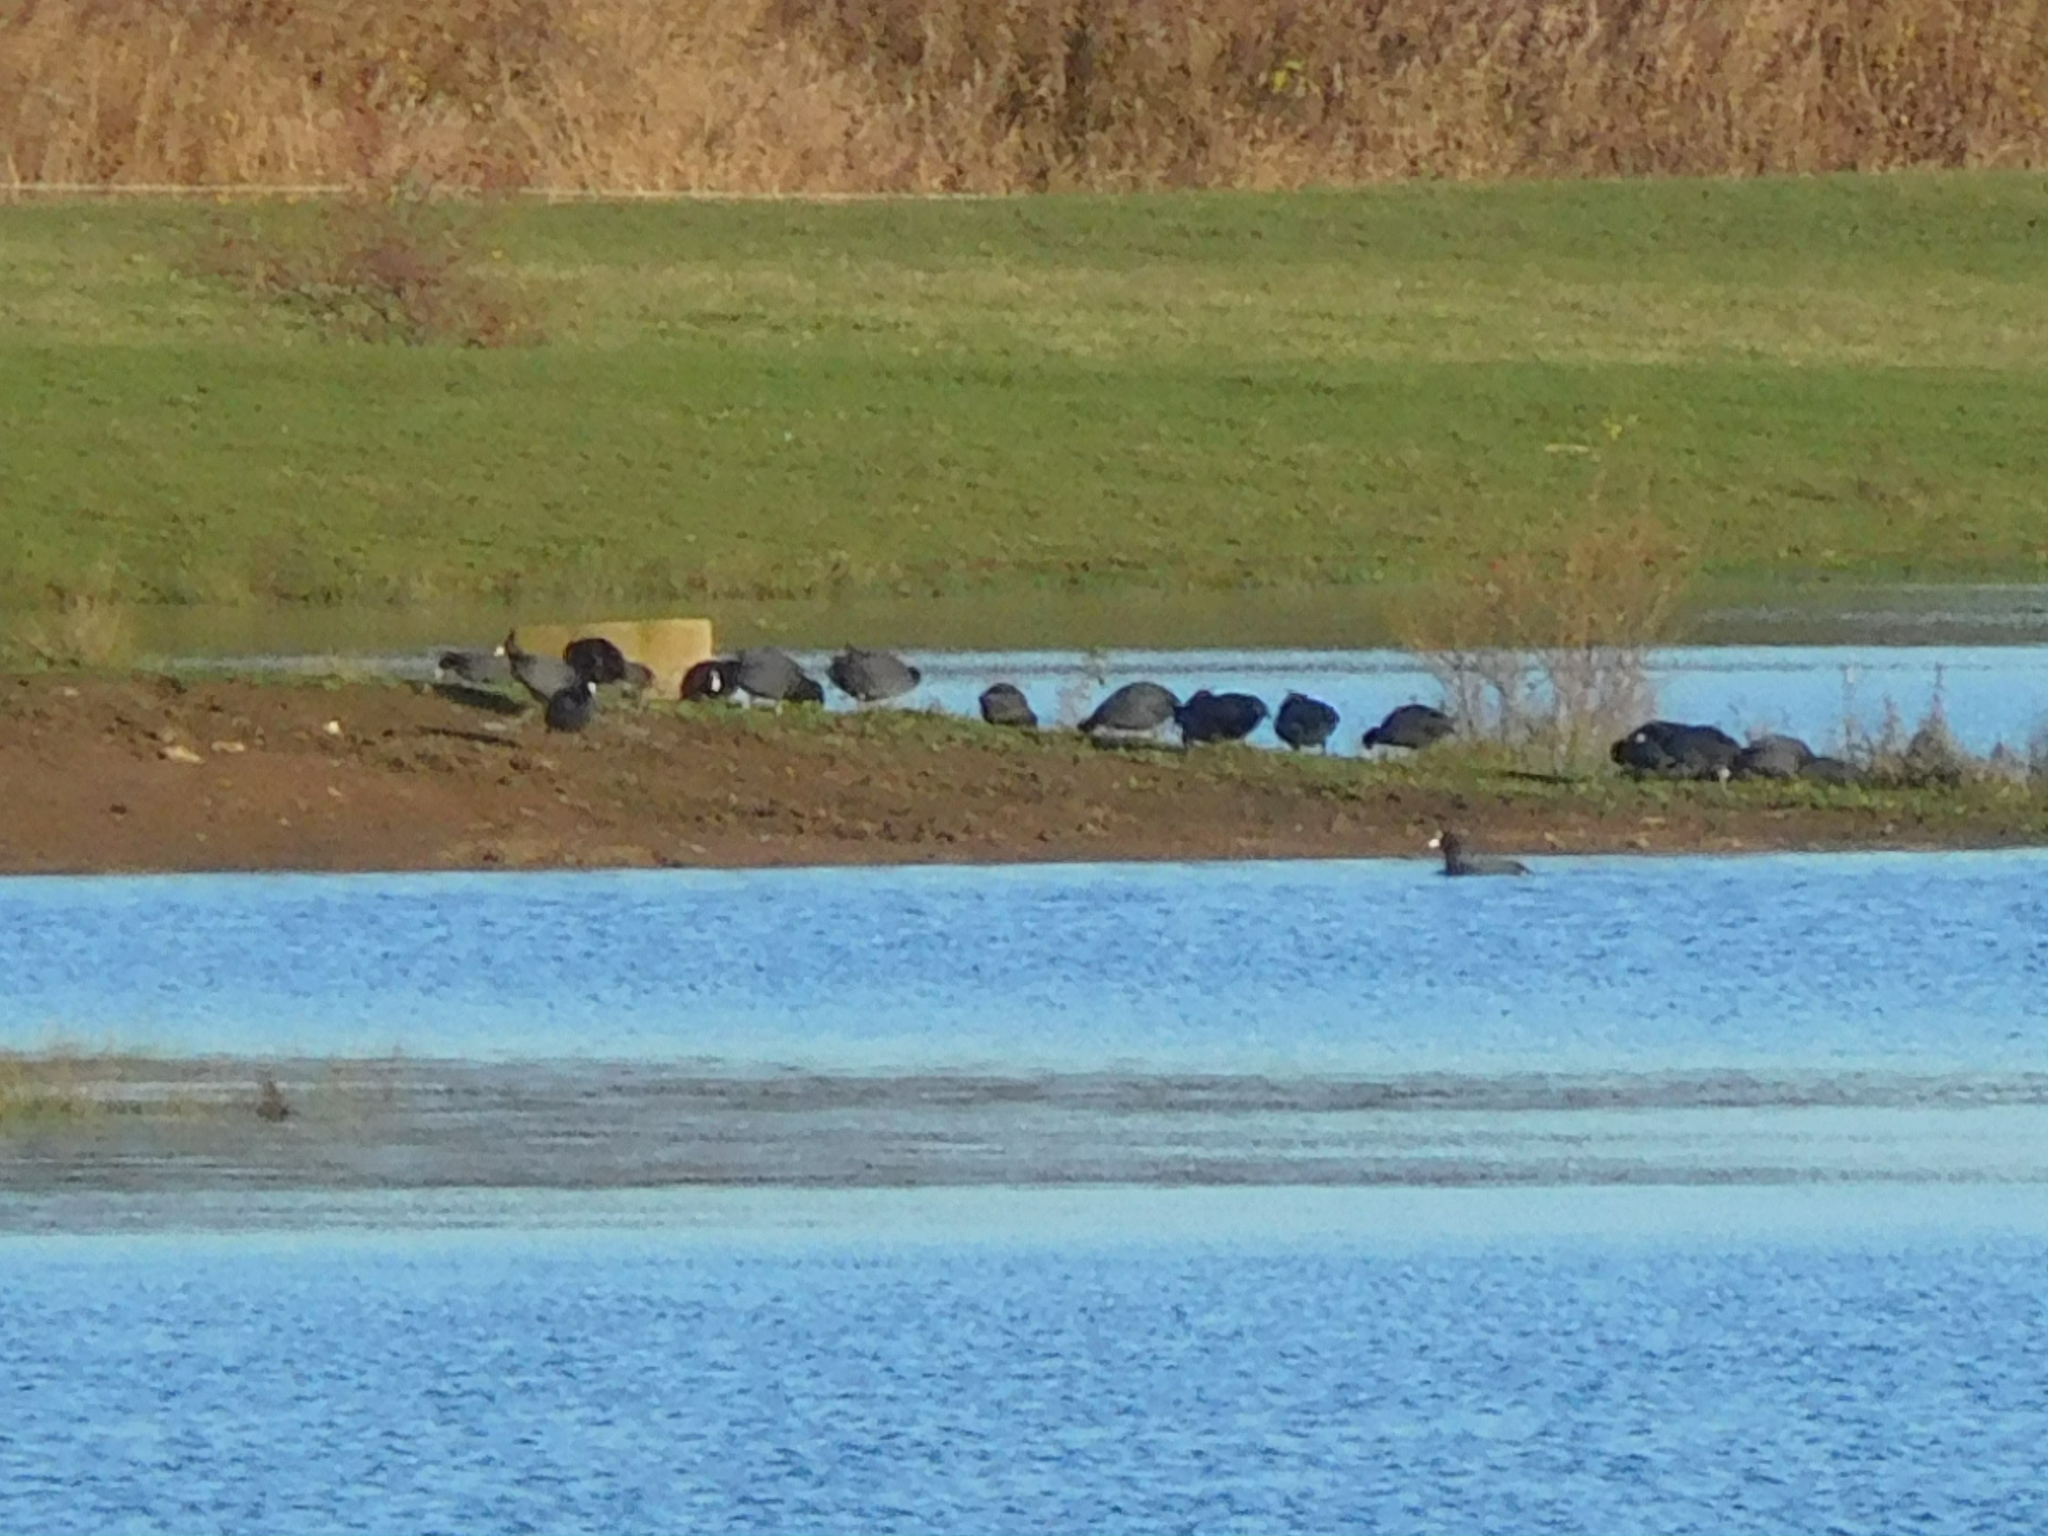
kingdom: Animalia
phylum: Chordata
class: Aves
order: Gruiformes
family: Rallidae
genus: Fulica
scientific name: Fulica atra
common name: Eurasian coot
